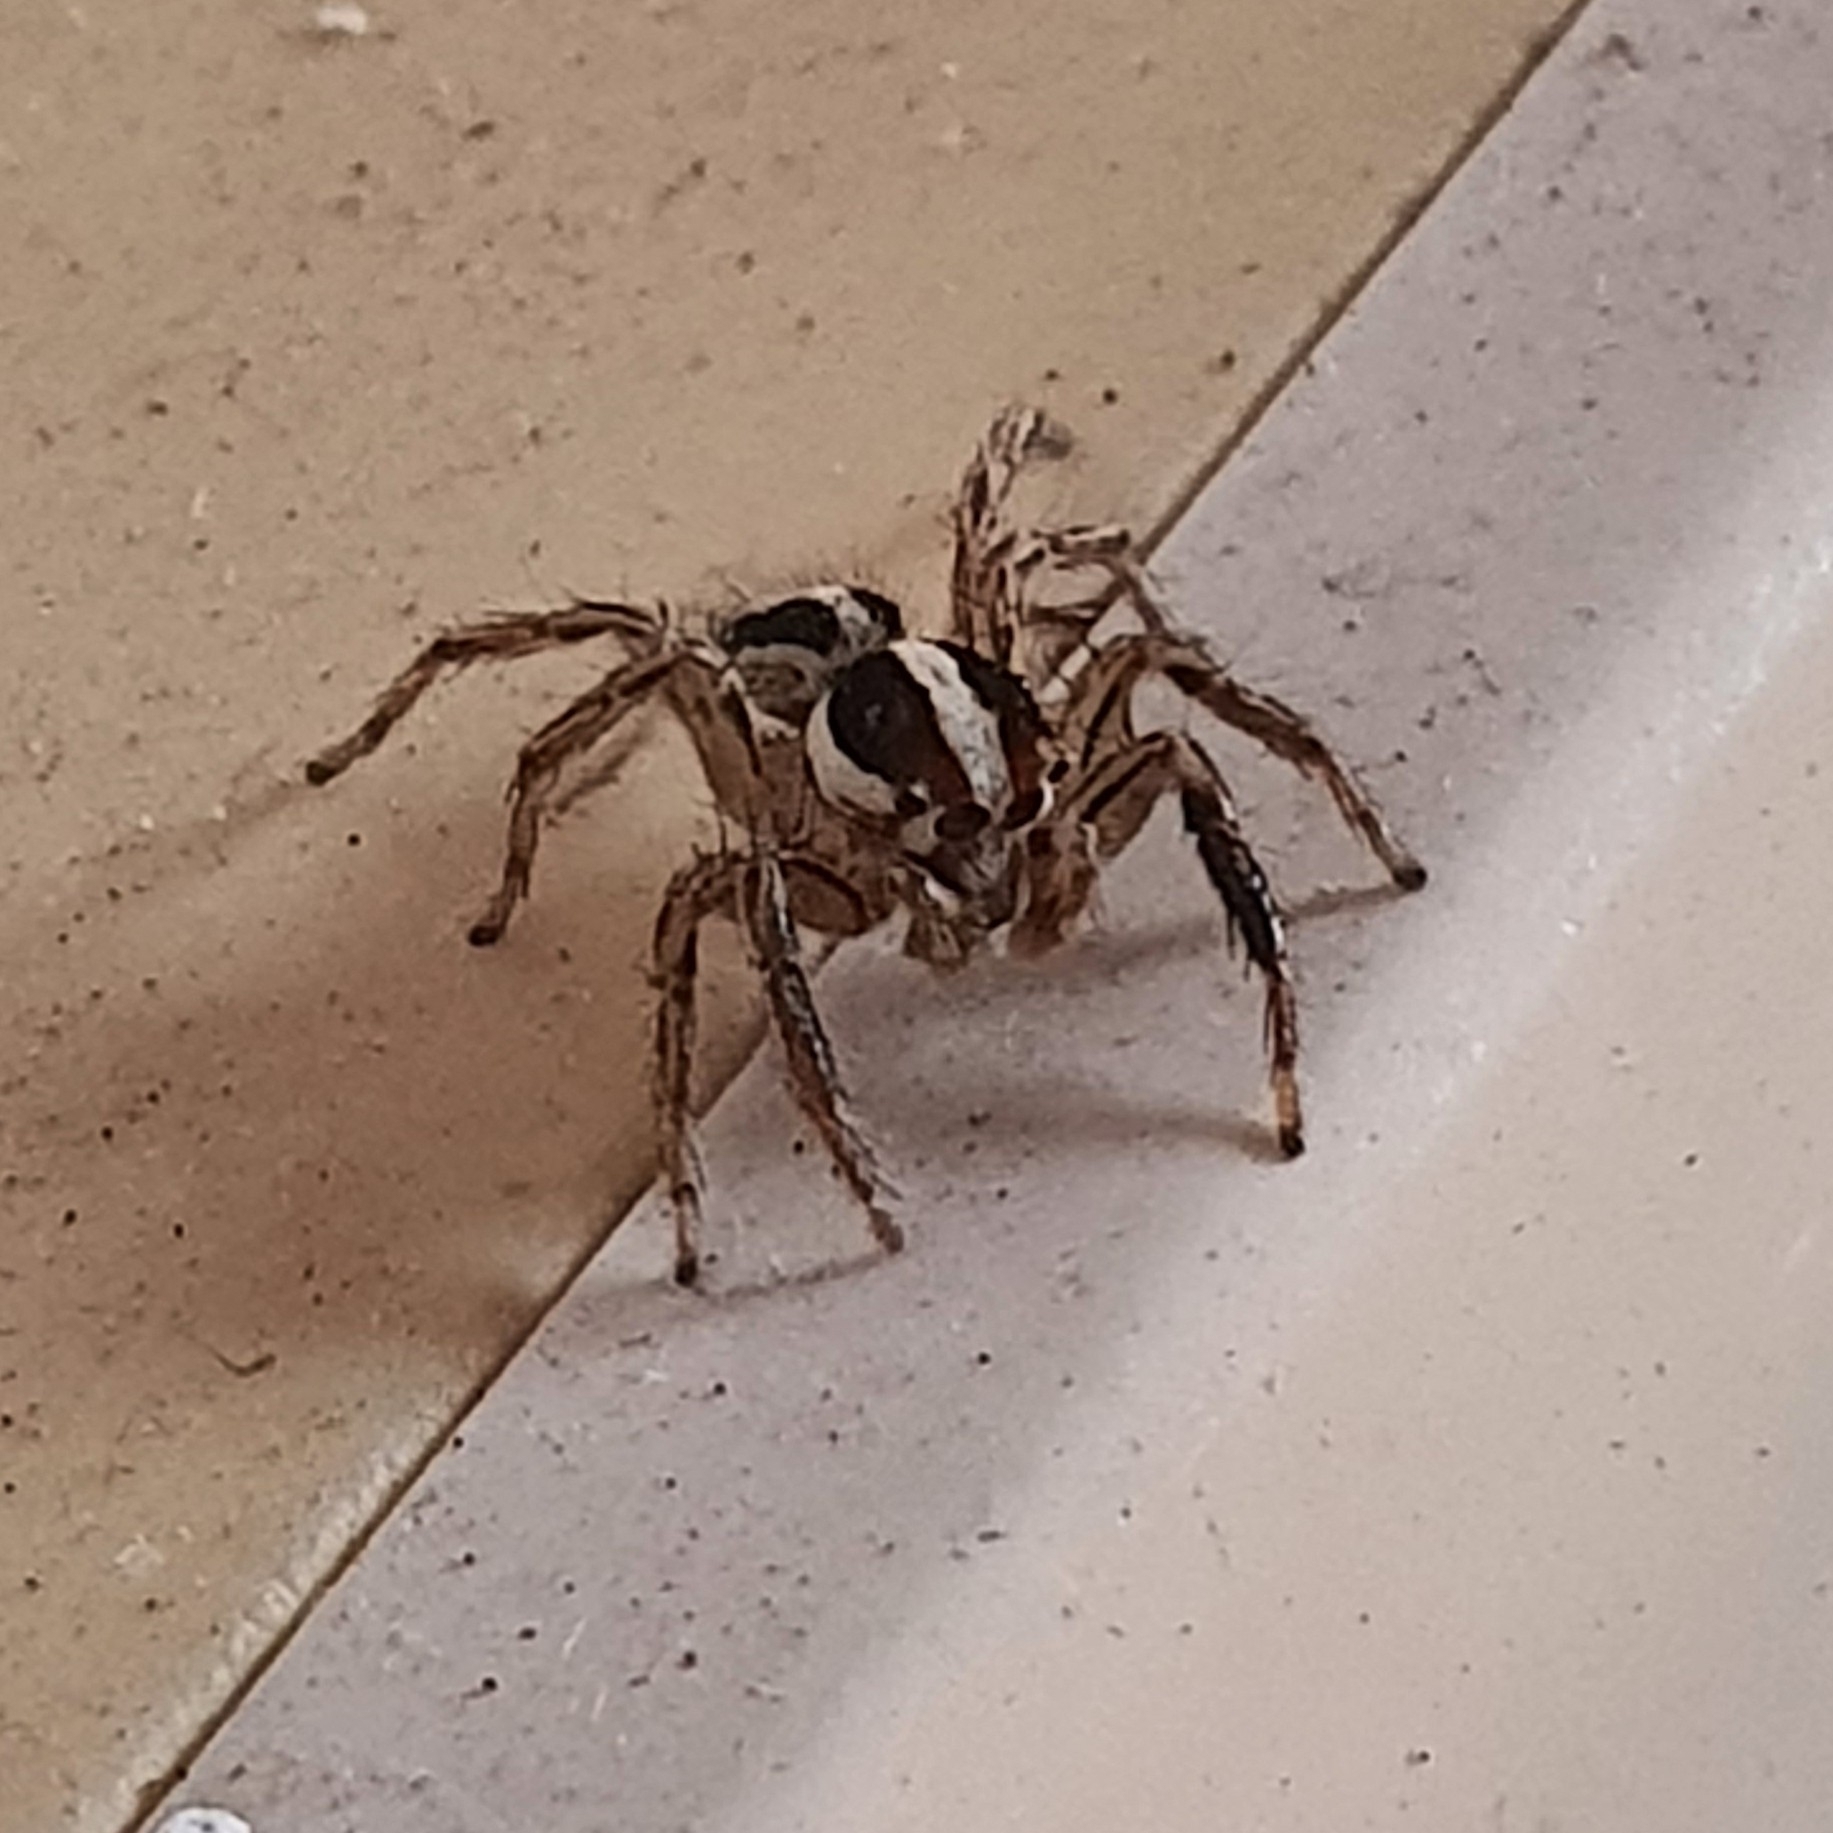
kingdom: Animalia
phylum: Arthropoda
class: Arachnida
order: Araneae
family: Salticidae
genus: Plexippus
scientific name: Plexippus paykulli
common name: Pantropical jumper
